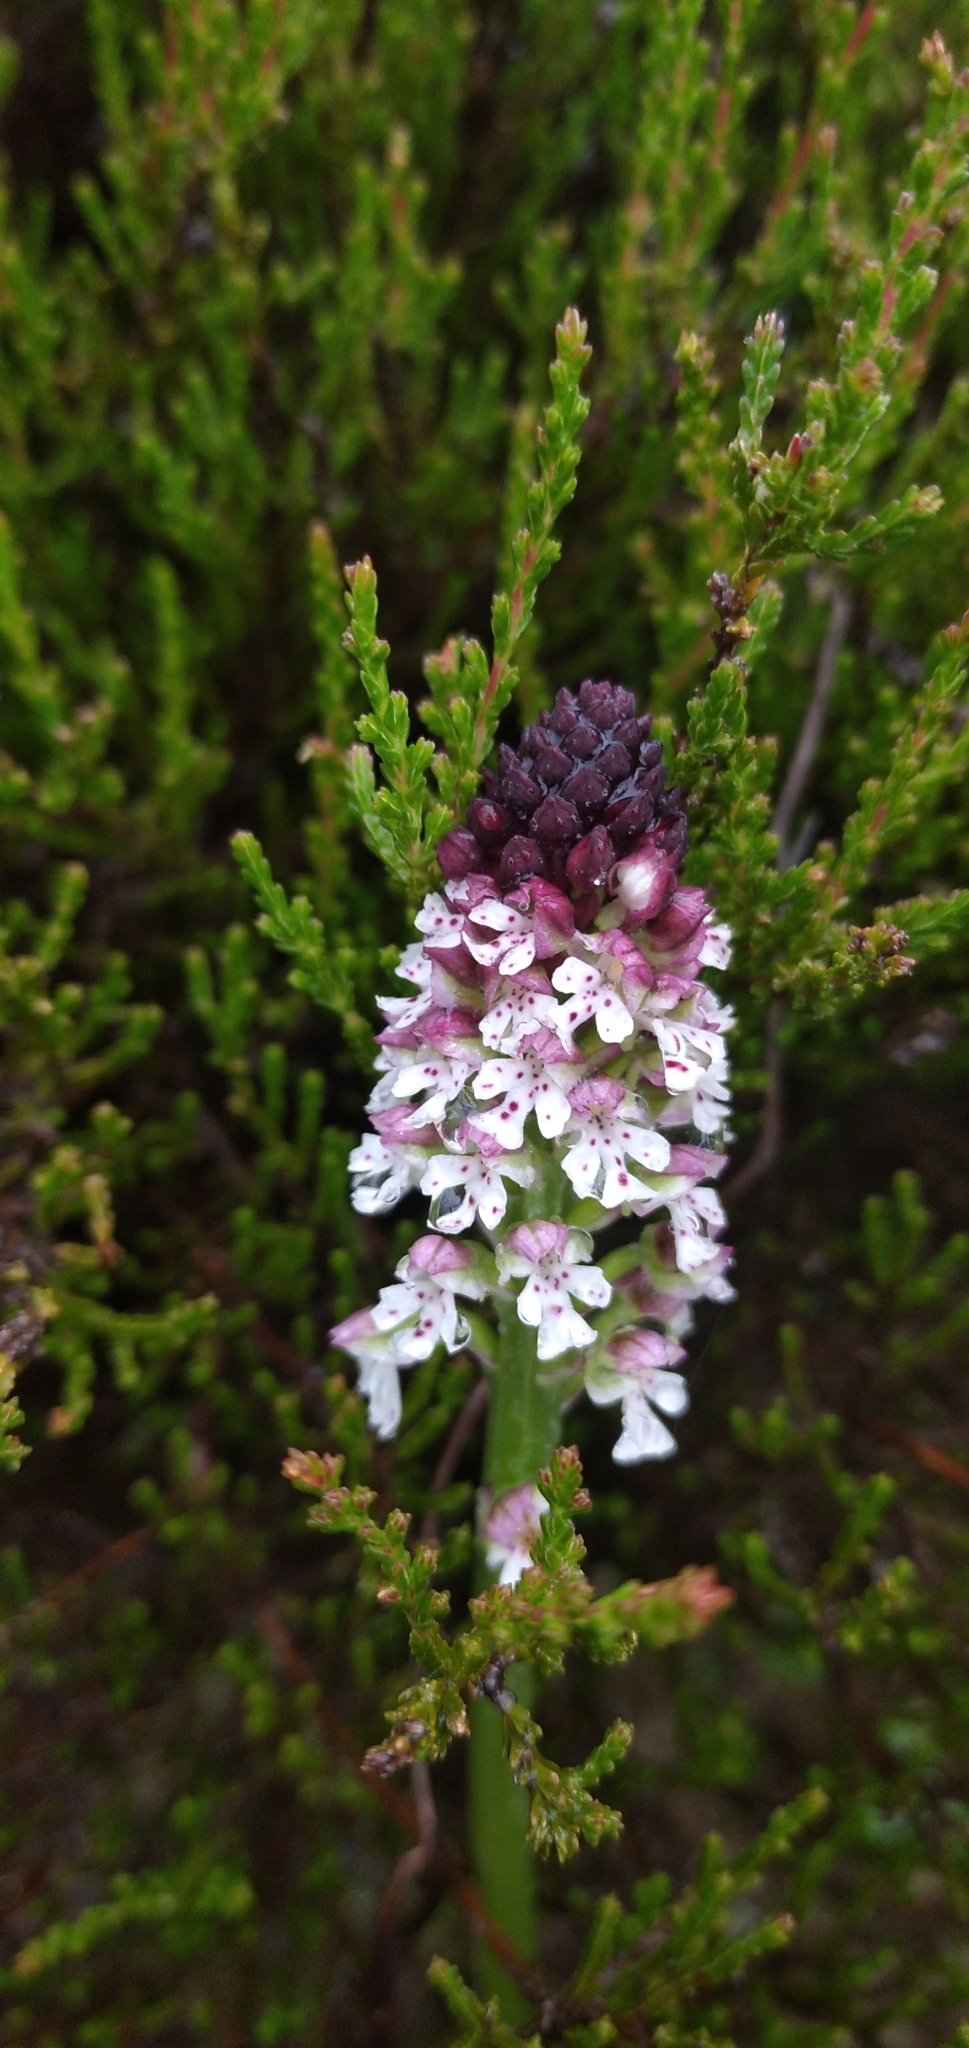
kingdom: Plantae
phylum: Tracheophyta
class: Liliopsida
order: Asparagales
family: Orchidaceae
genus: Neotinea
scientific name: Neotinea ustulata
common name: Burnt orchid
